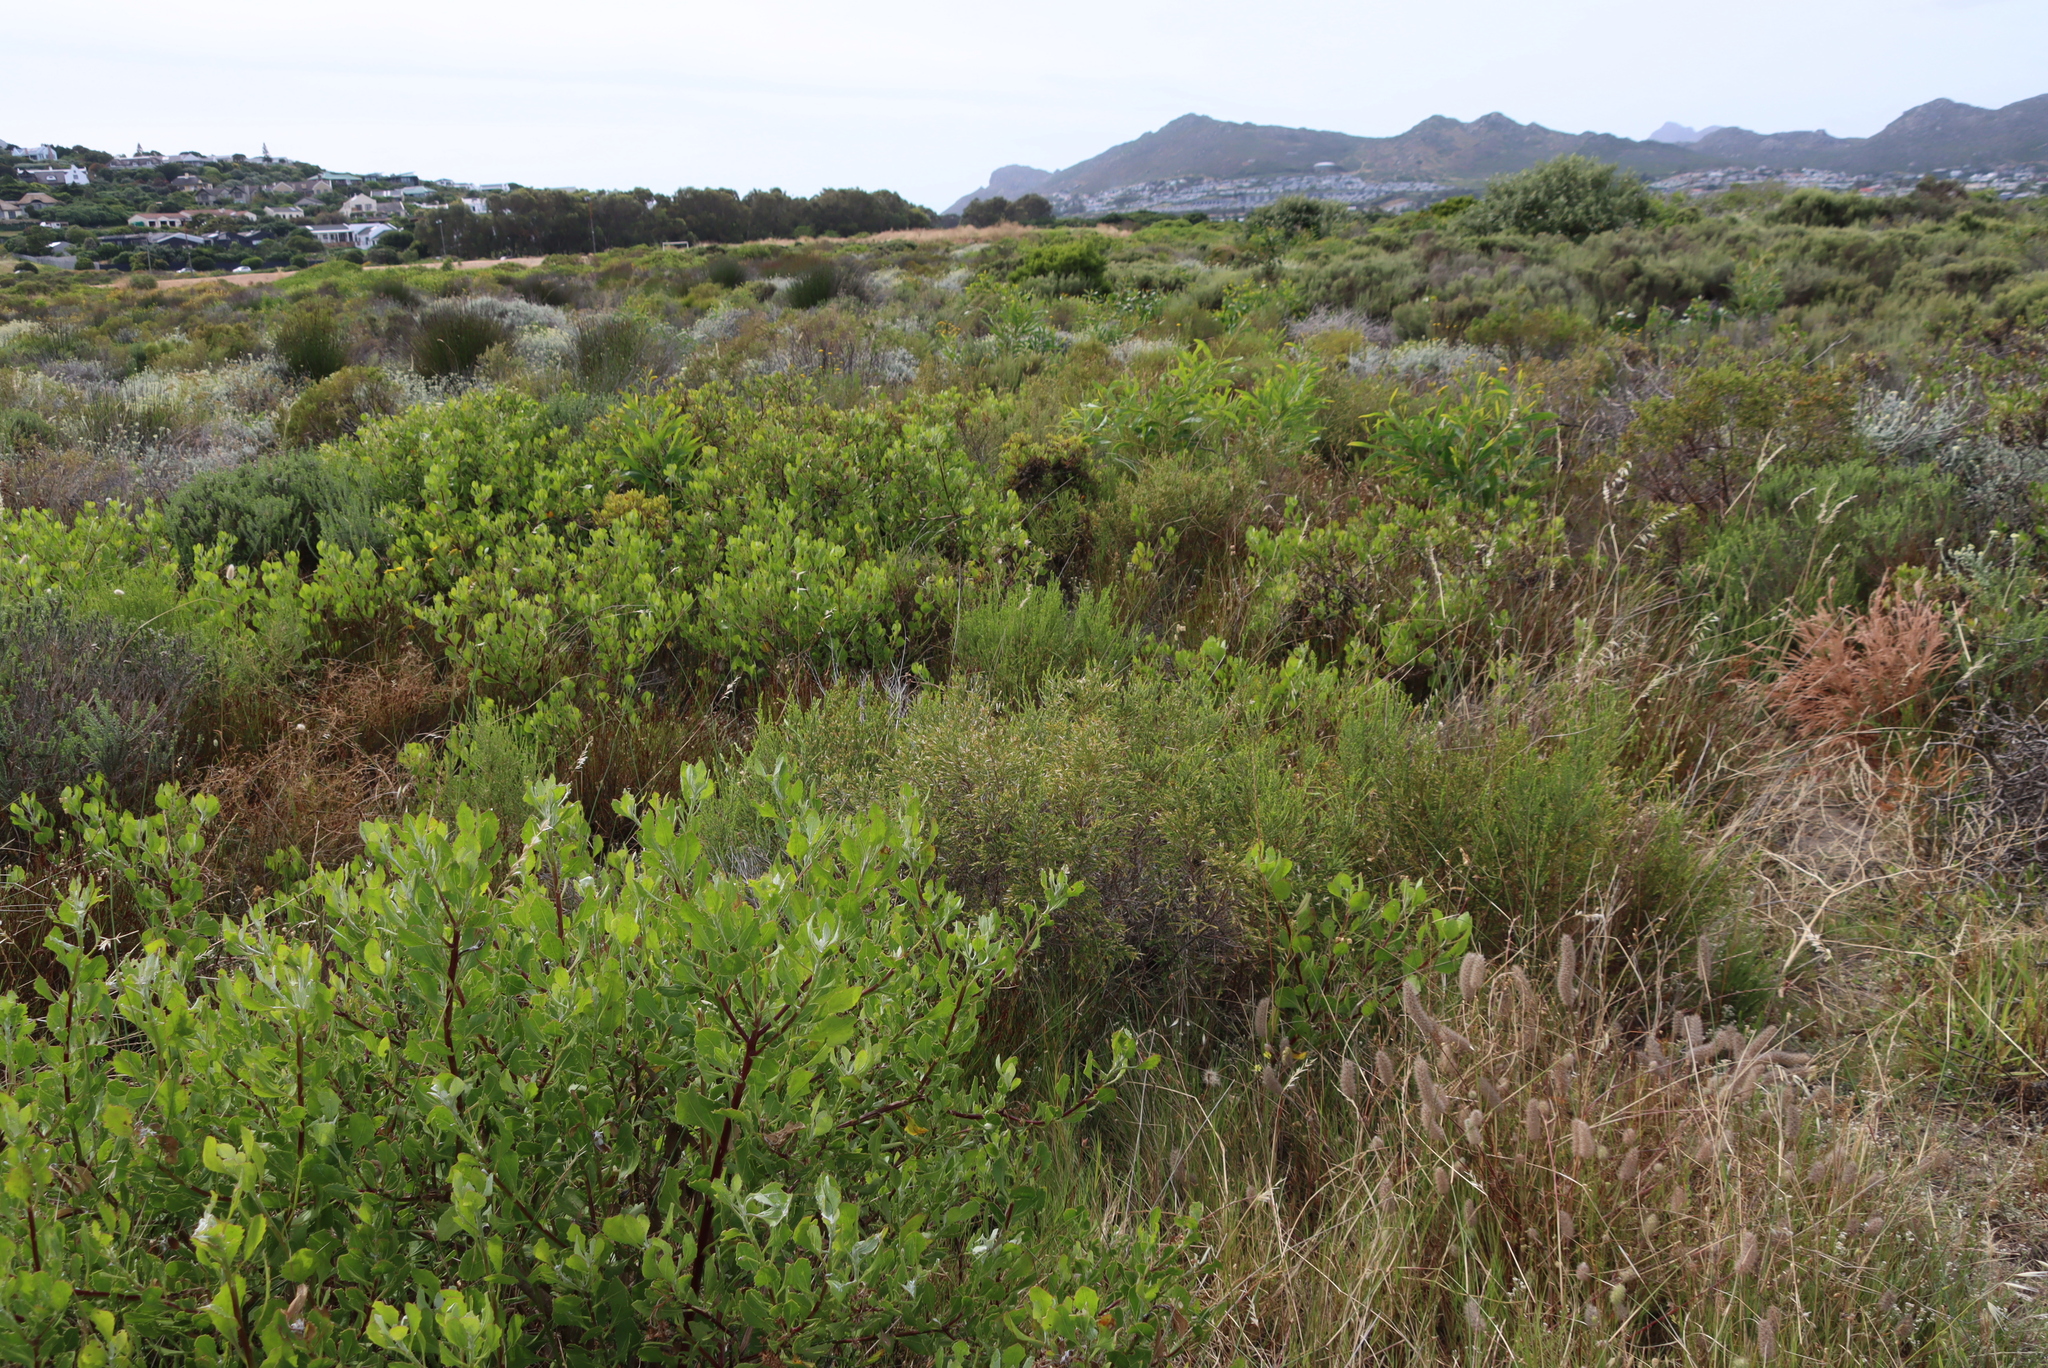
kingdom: Plantae
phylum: Tracheophyta
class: Magnoliopsida
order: Asterales
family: Asteraceae
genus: Osteospermum
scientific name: Osteospermum moniliferum
